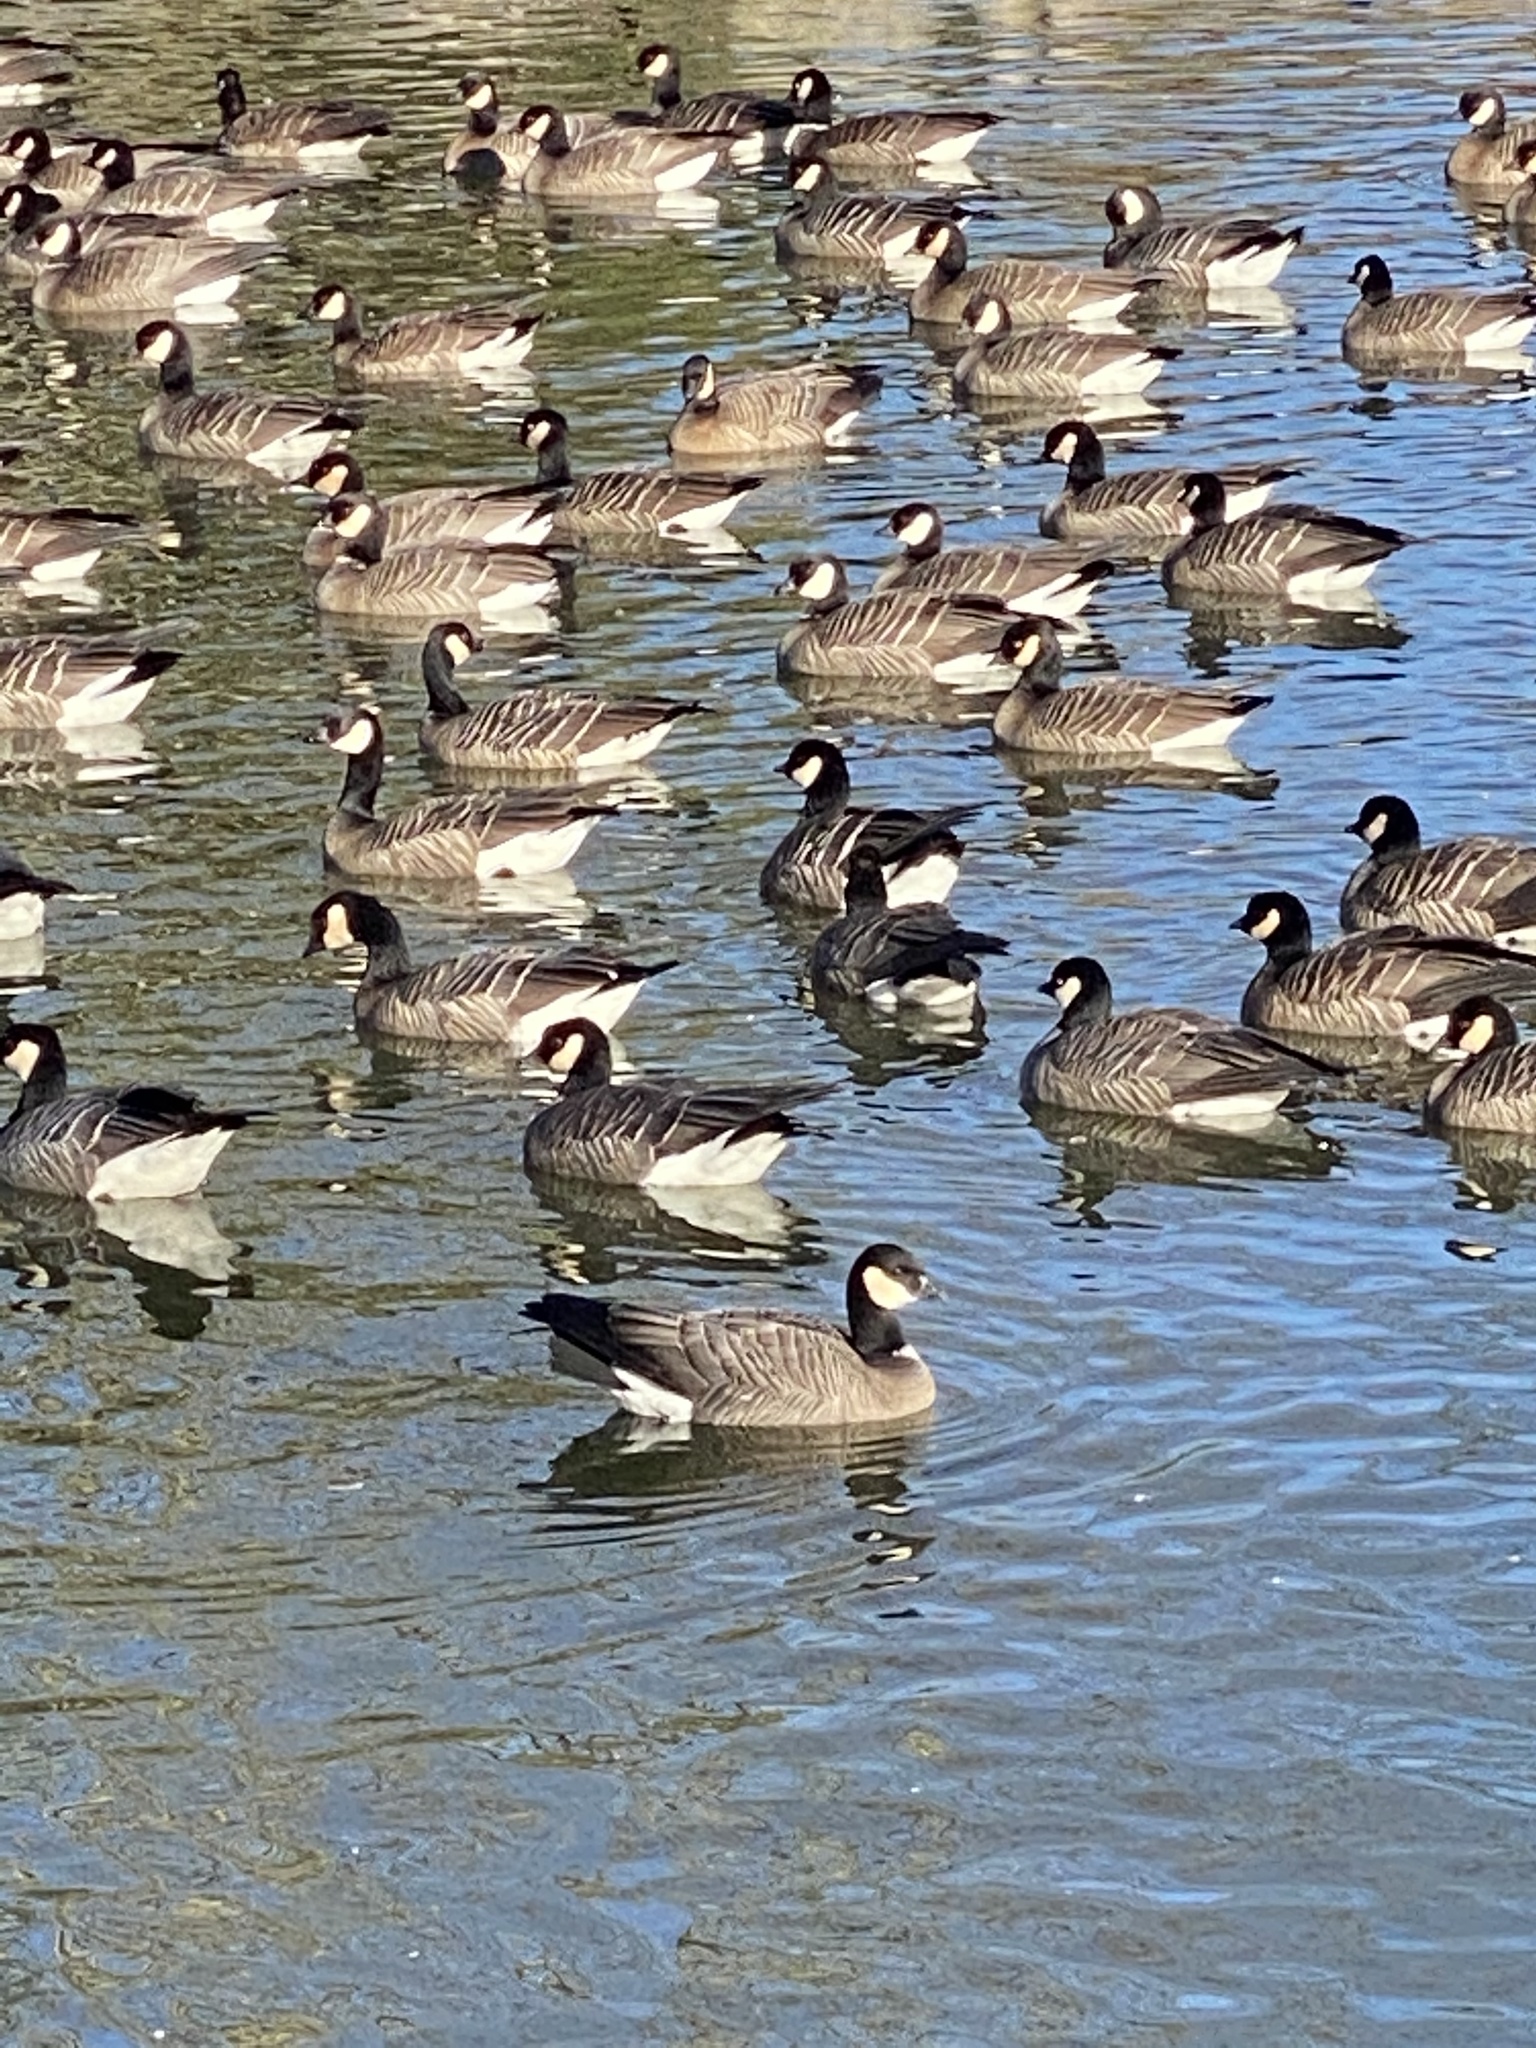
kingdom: Animalia
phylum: Chordata
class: Aves
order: Anseriformes
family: Anatidae
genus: Branta
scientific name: Branta hutchinsii
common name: Cackling goose
